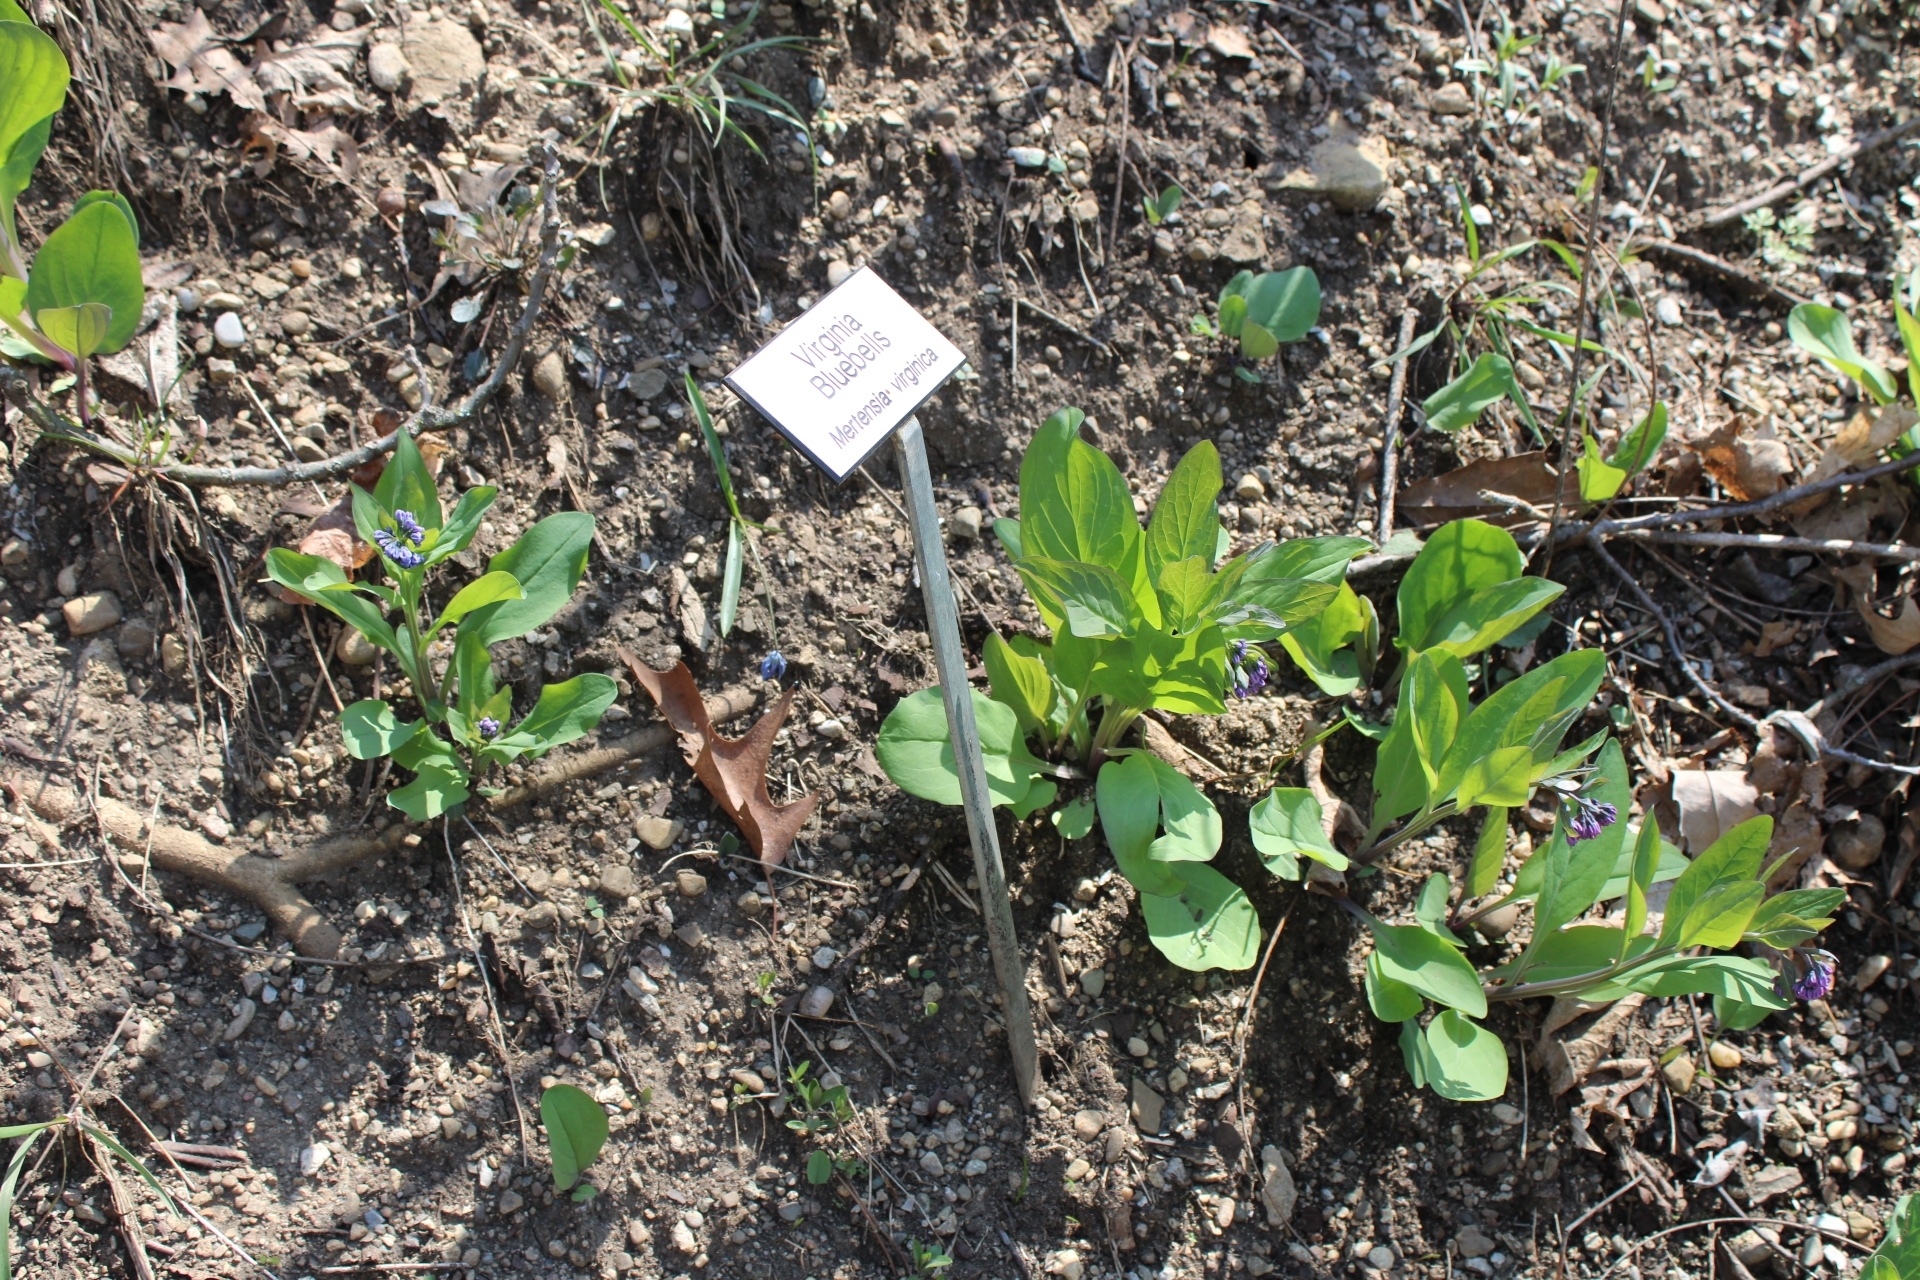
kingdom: Plantae
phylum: Tracheophyta
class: Magnoliopsida
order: Boraginales
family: Boraginaceae
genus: Mertensia
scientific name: Mertensia virginica
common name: Virginia bluebells
